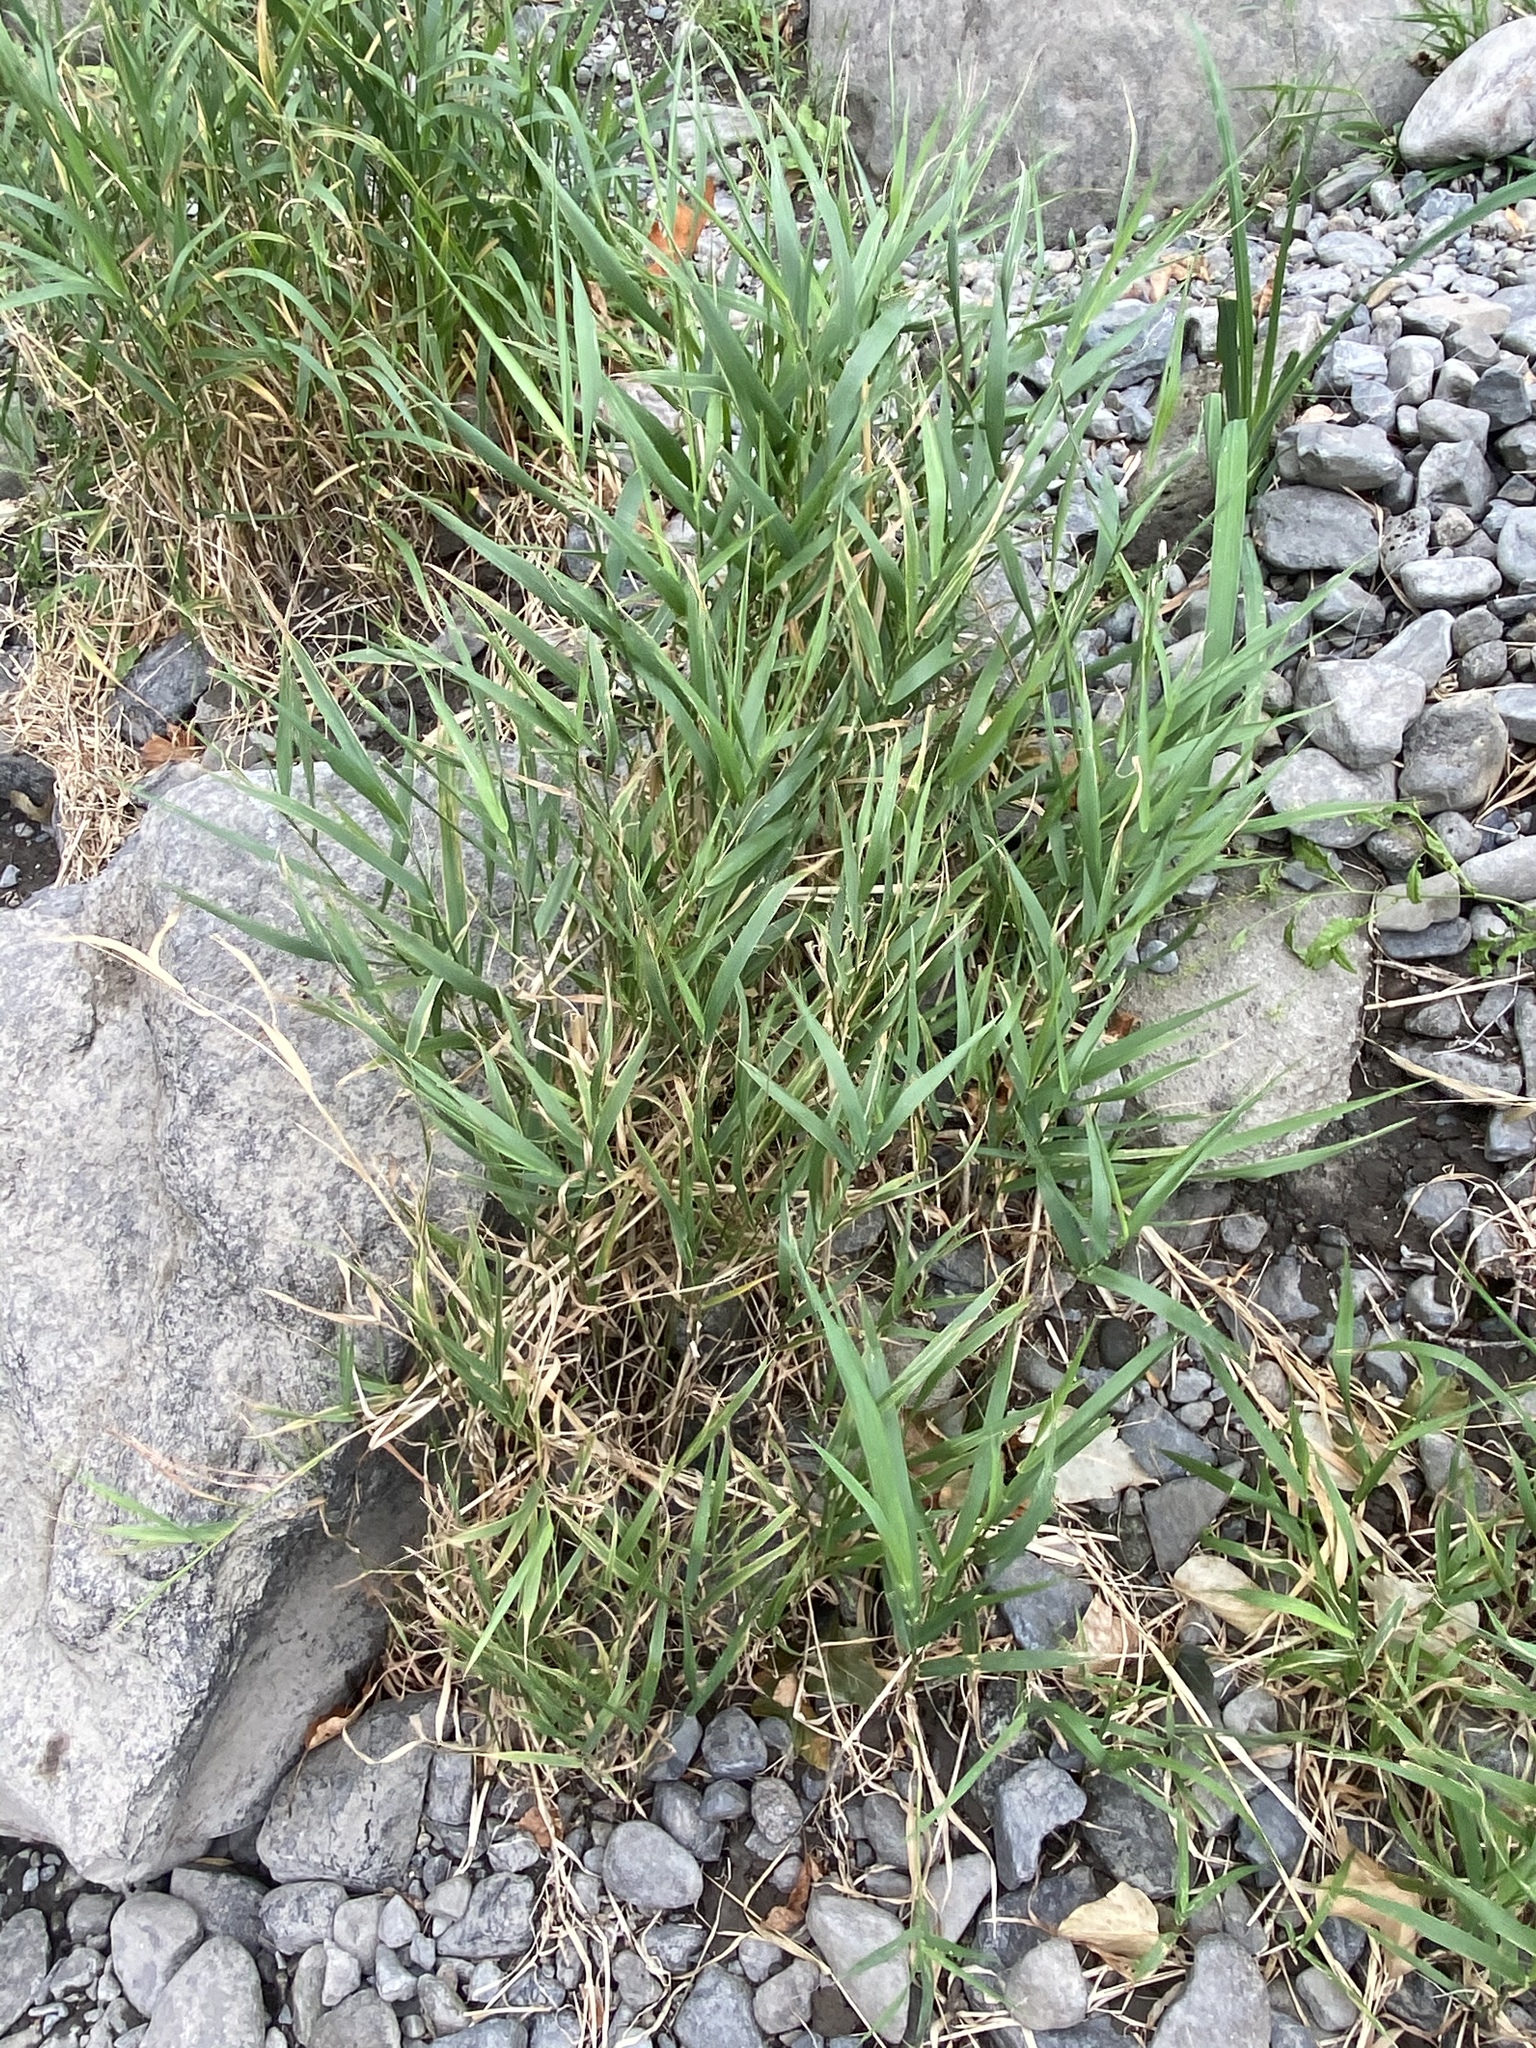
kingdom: Plantae
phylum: Tracheophyta
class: Liliopsida
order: Poales
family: Poaceae
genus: Phalaris
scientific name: Phalaris arundinacea
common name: Reed canary-grass
